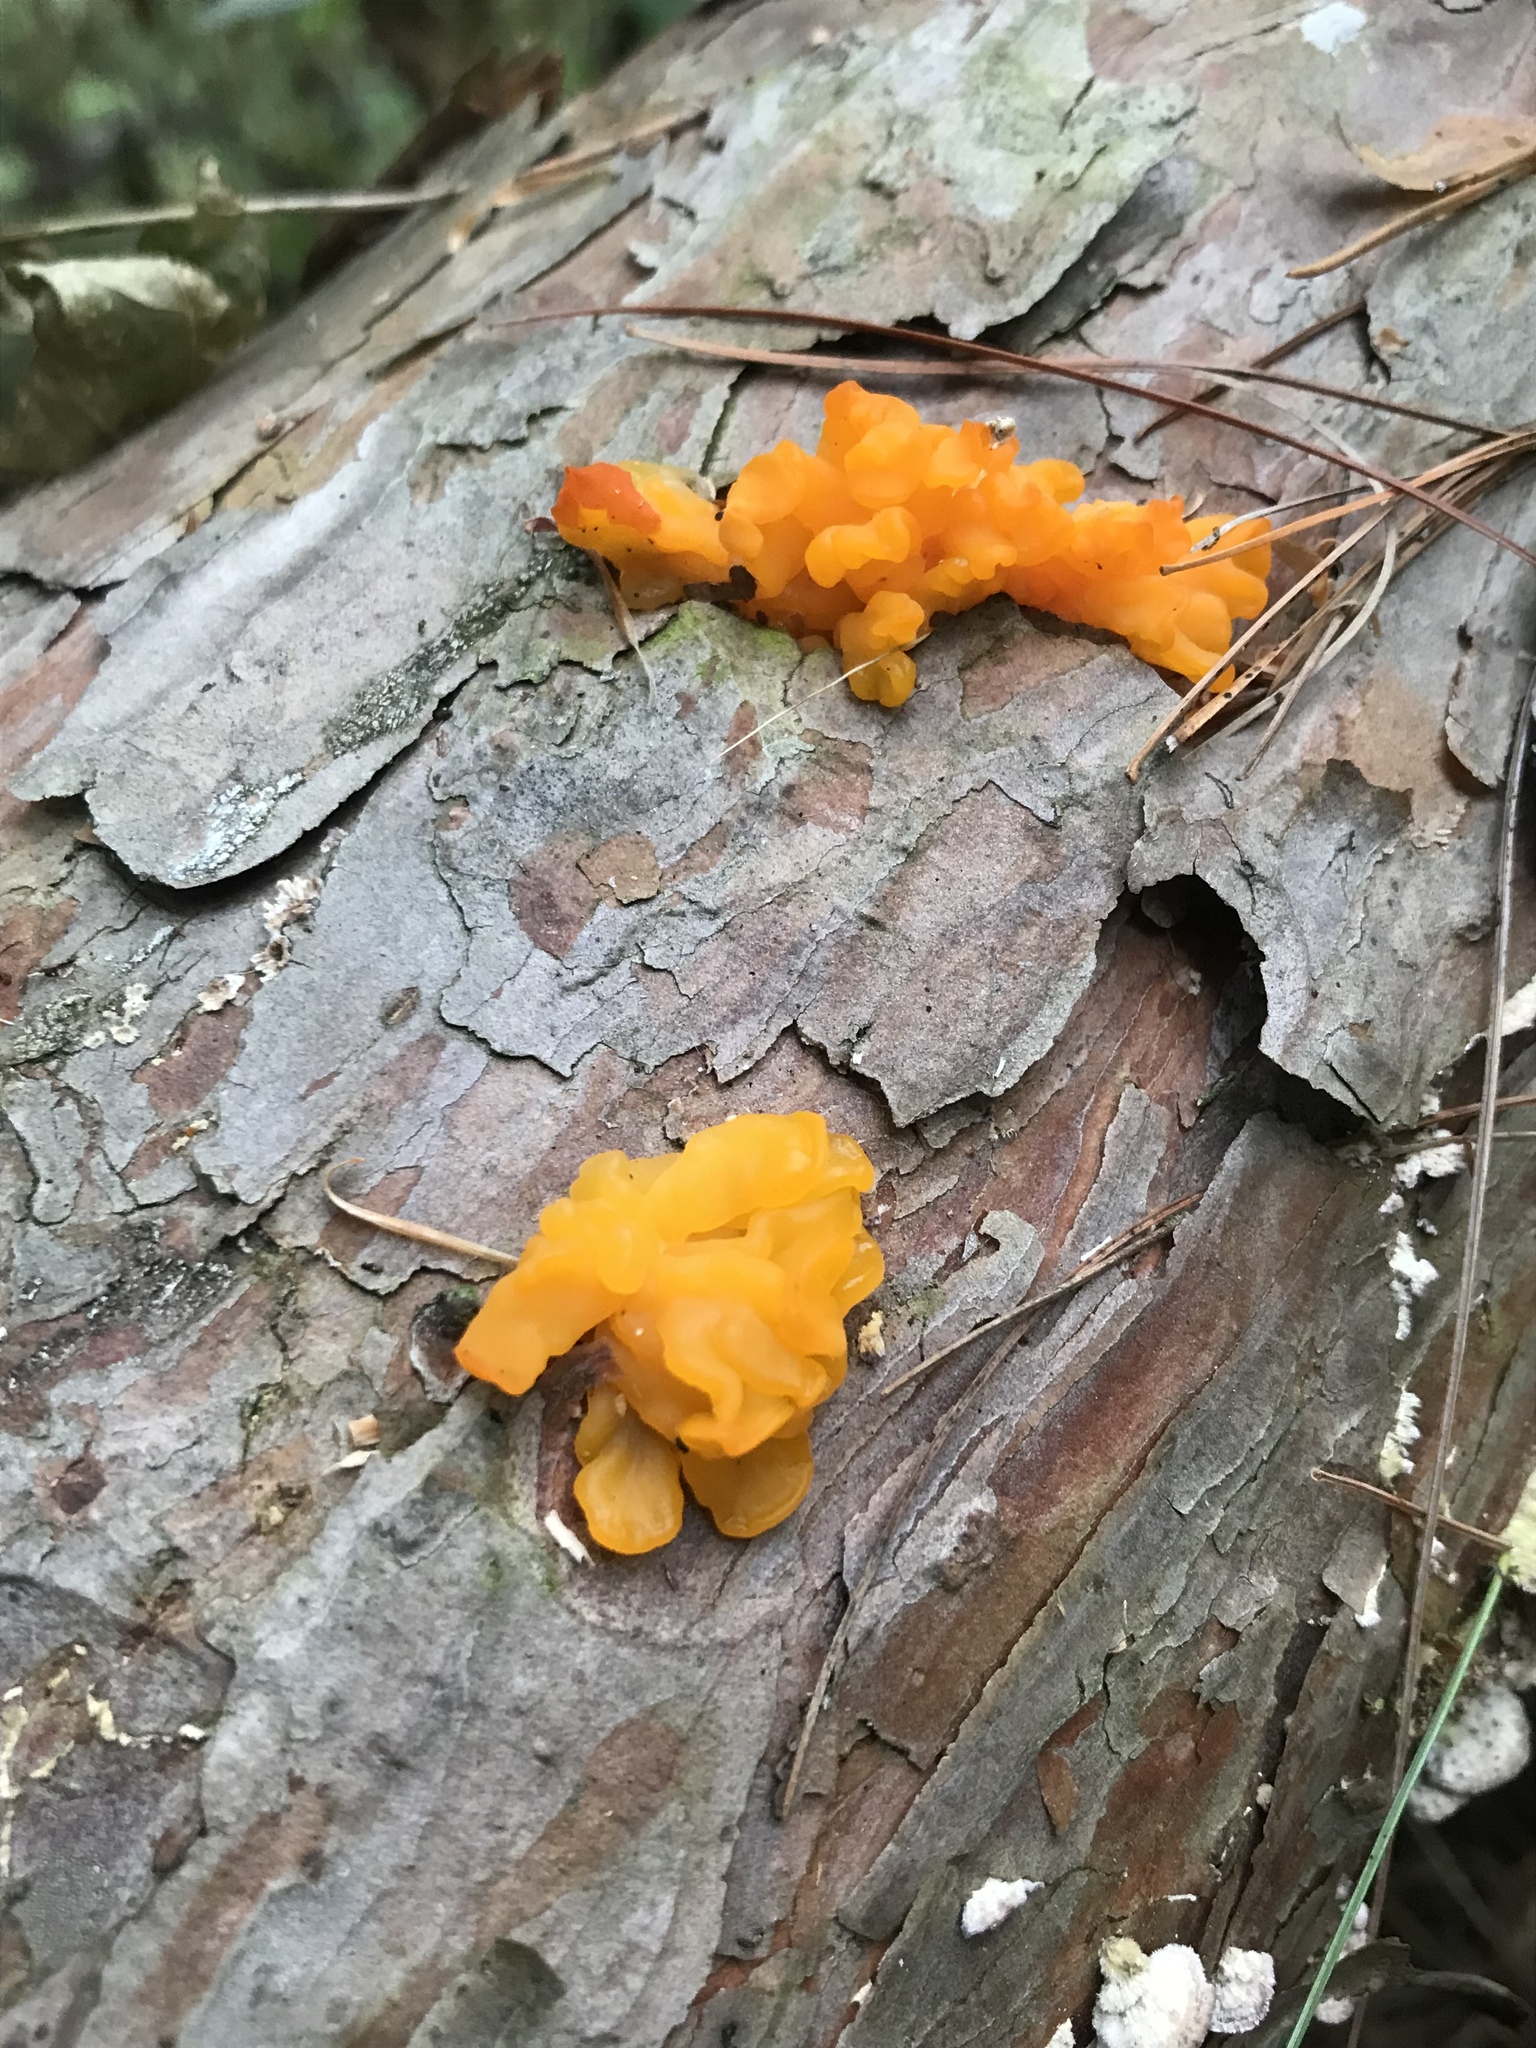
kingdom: Fungi
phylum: Basidiomycota
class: Dacrymycetes
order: Dacrymycetales
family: Dacrymycetaceae
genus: Dacrymyces
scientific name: Dacrymyces chrysospermus
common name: Orange jelly spot
